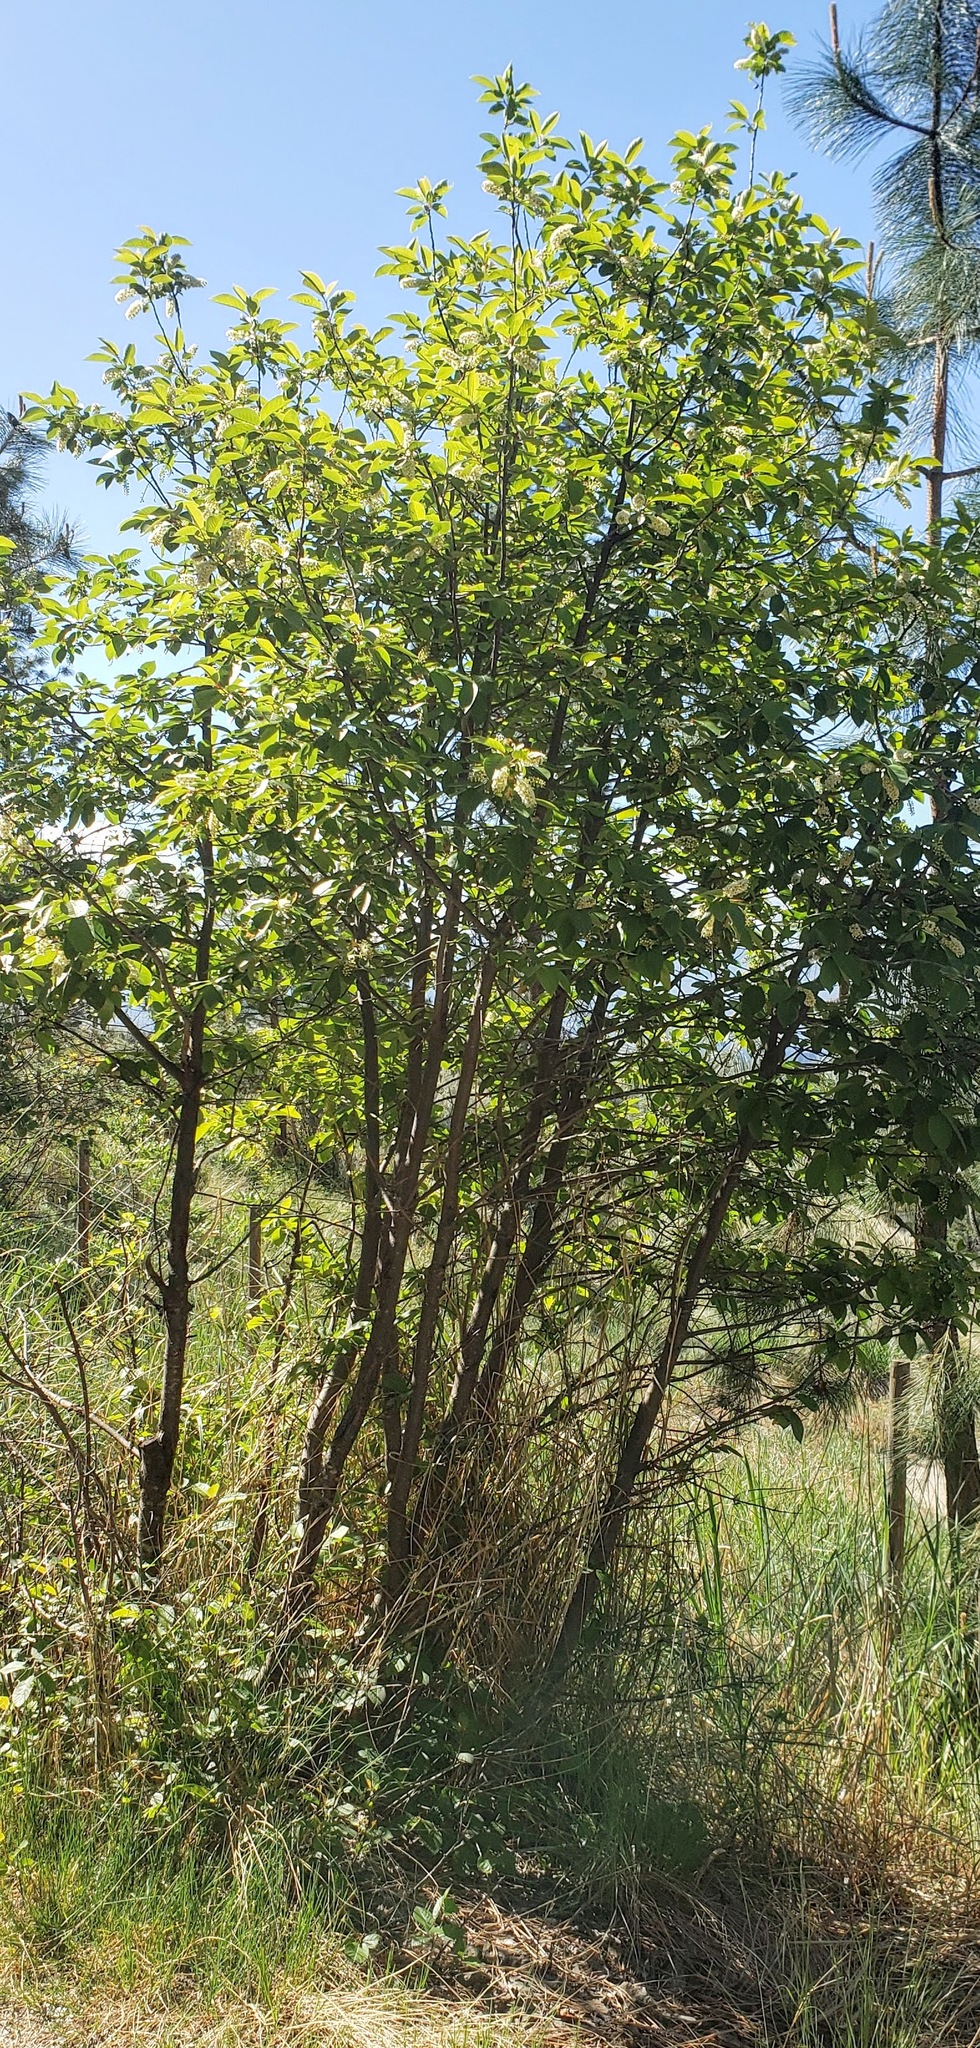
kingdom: Plantae
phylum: Tracheophyta
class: Magnoliopsida
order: Rosales
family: Rosaceae
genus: Prunus
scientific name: Prunus virginiana
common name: Chokecherry
